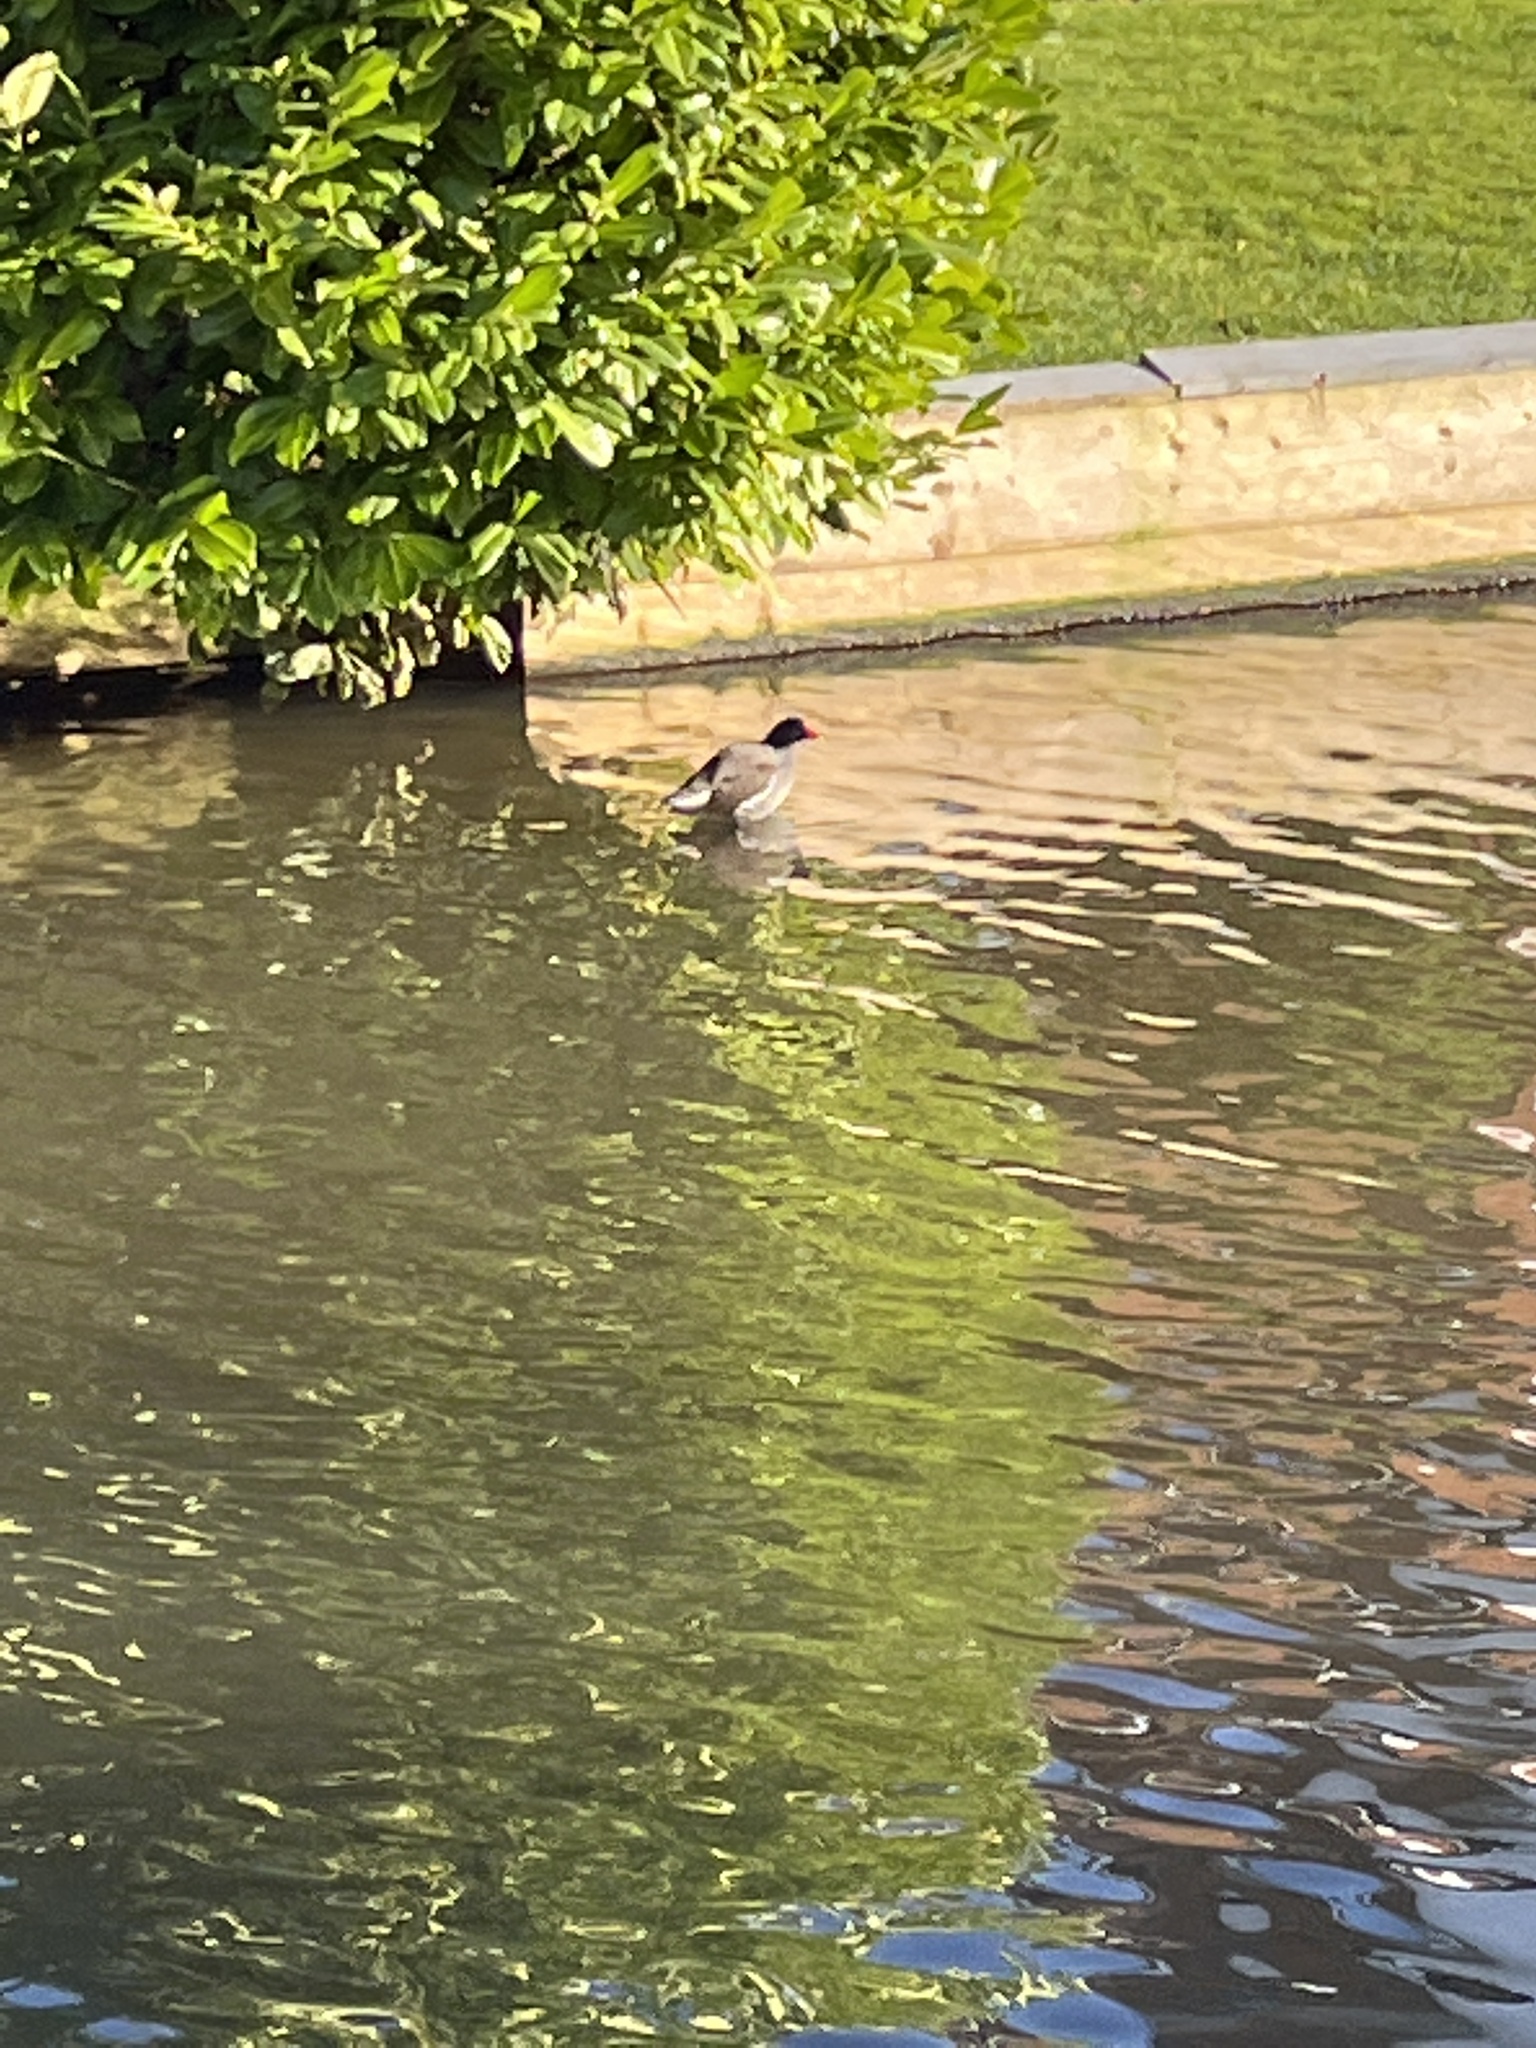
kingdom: Animalia
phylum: Chordata
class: Aves
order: Gruiformes
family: Rallidae
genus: Gallinula
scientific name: Gallinula chloropus
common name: Common moorhen
